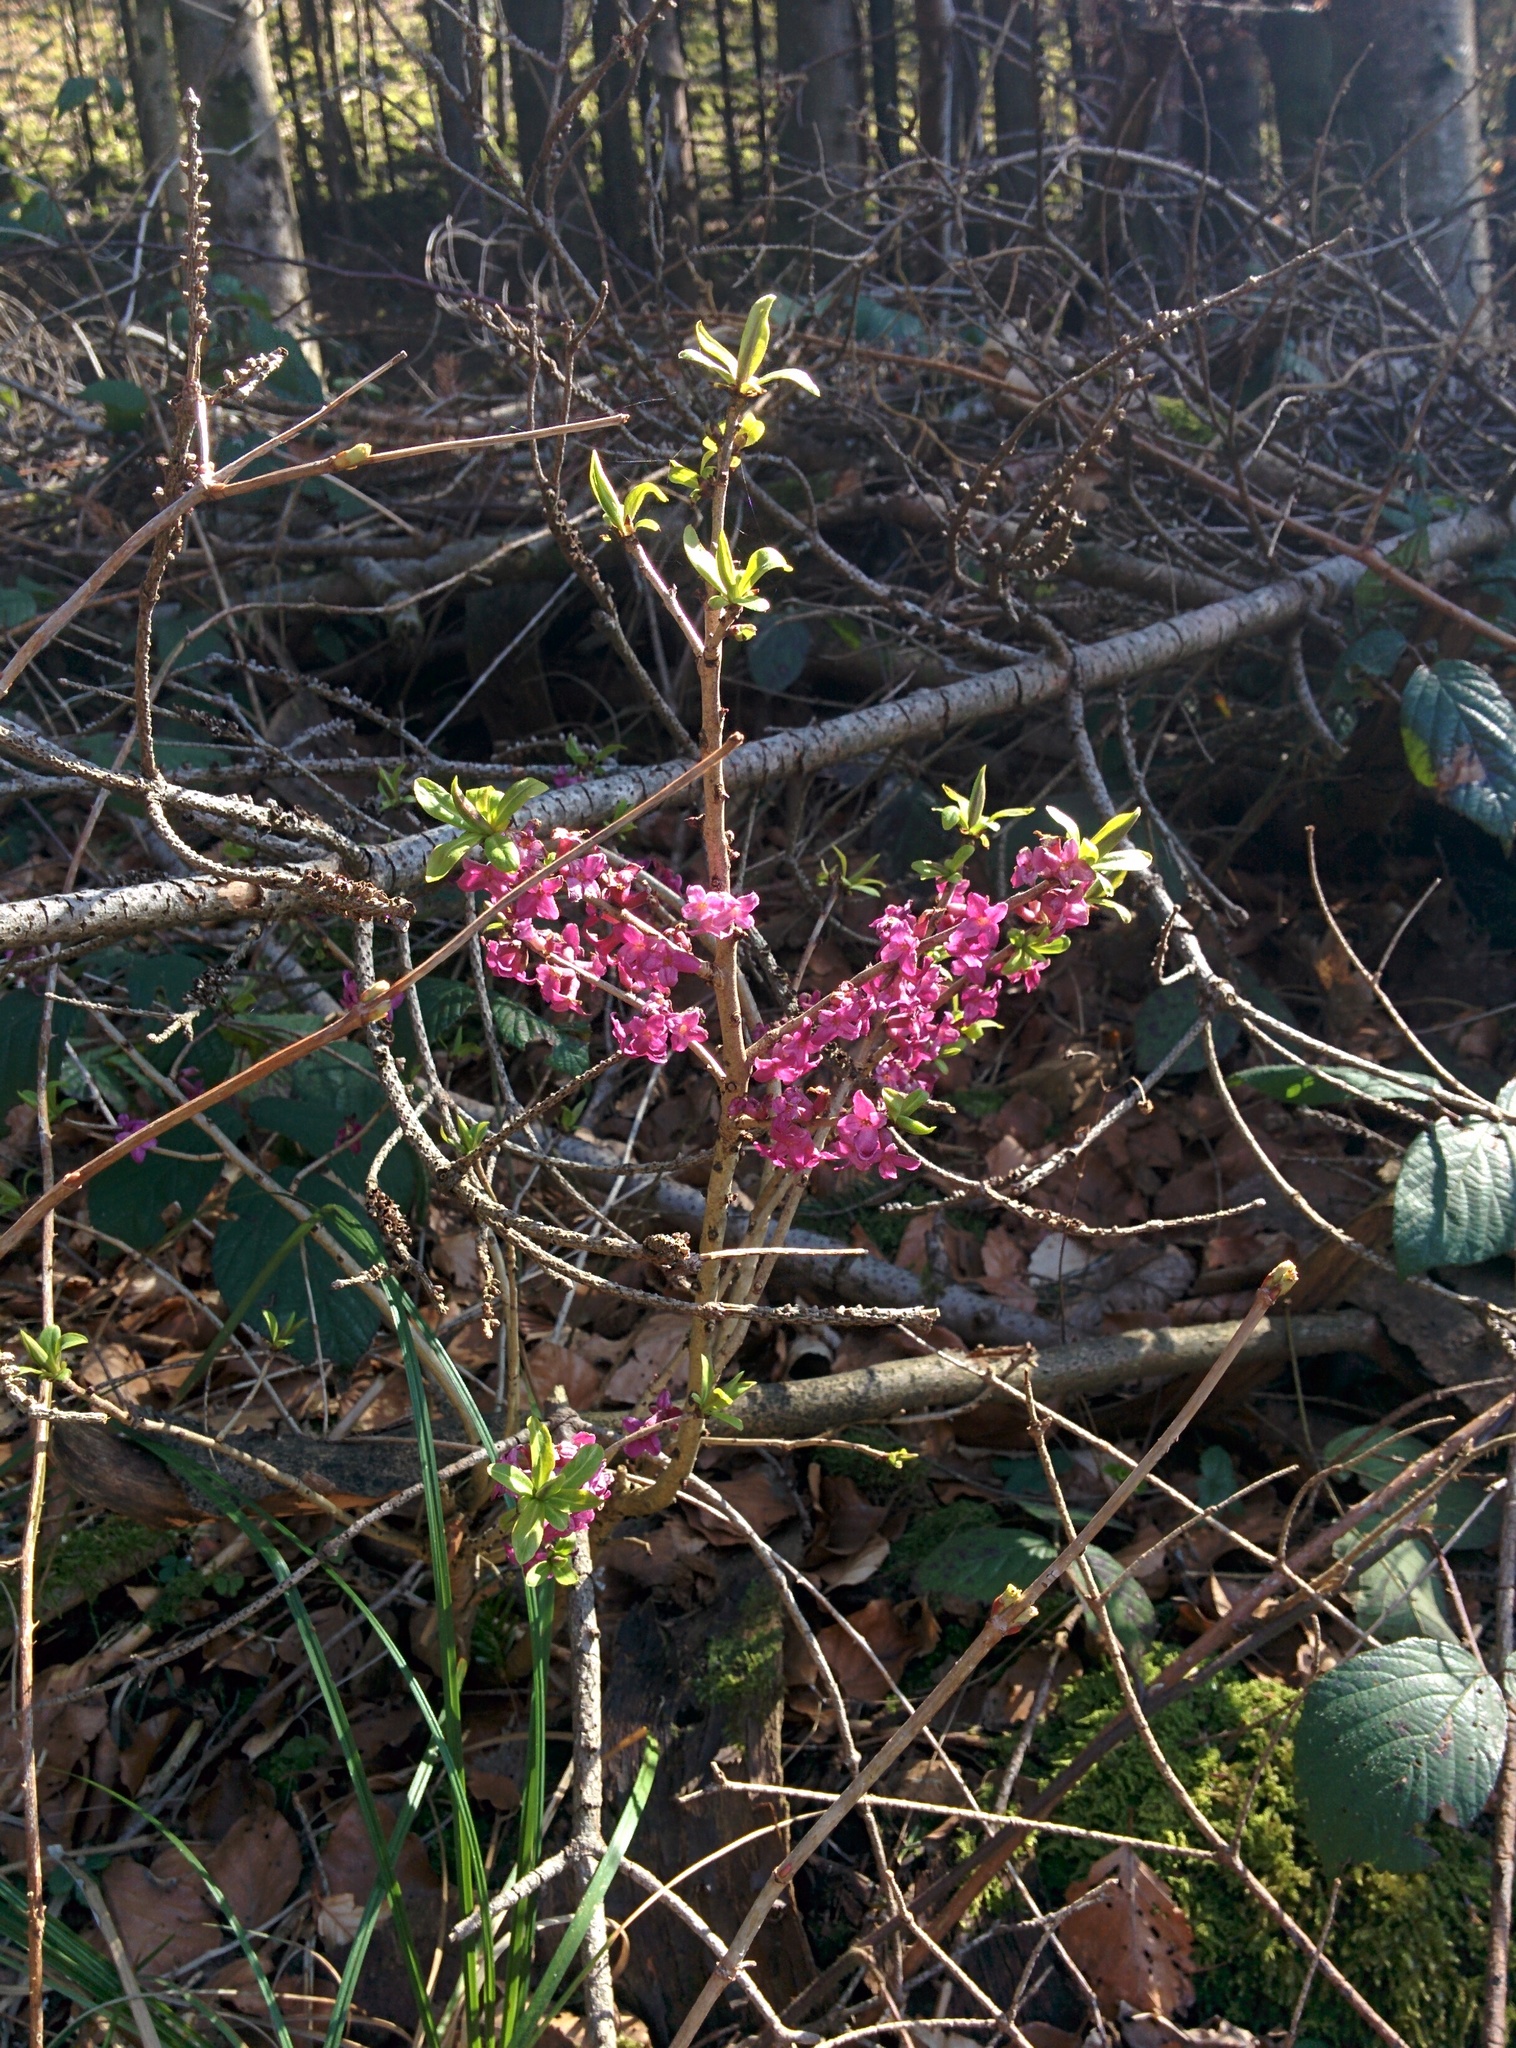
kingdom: Plantae
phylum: Tracheophyta
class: Magnoliopsida
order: Malvales
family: Thymelaeaceae
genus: Daphne
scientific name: Daphne mezereum
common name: Mezereon
